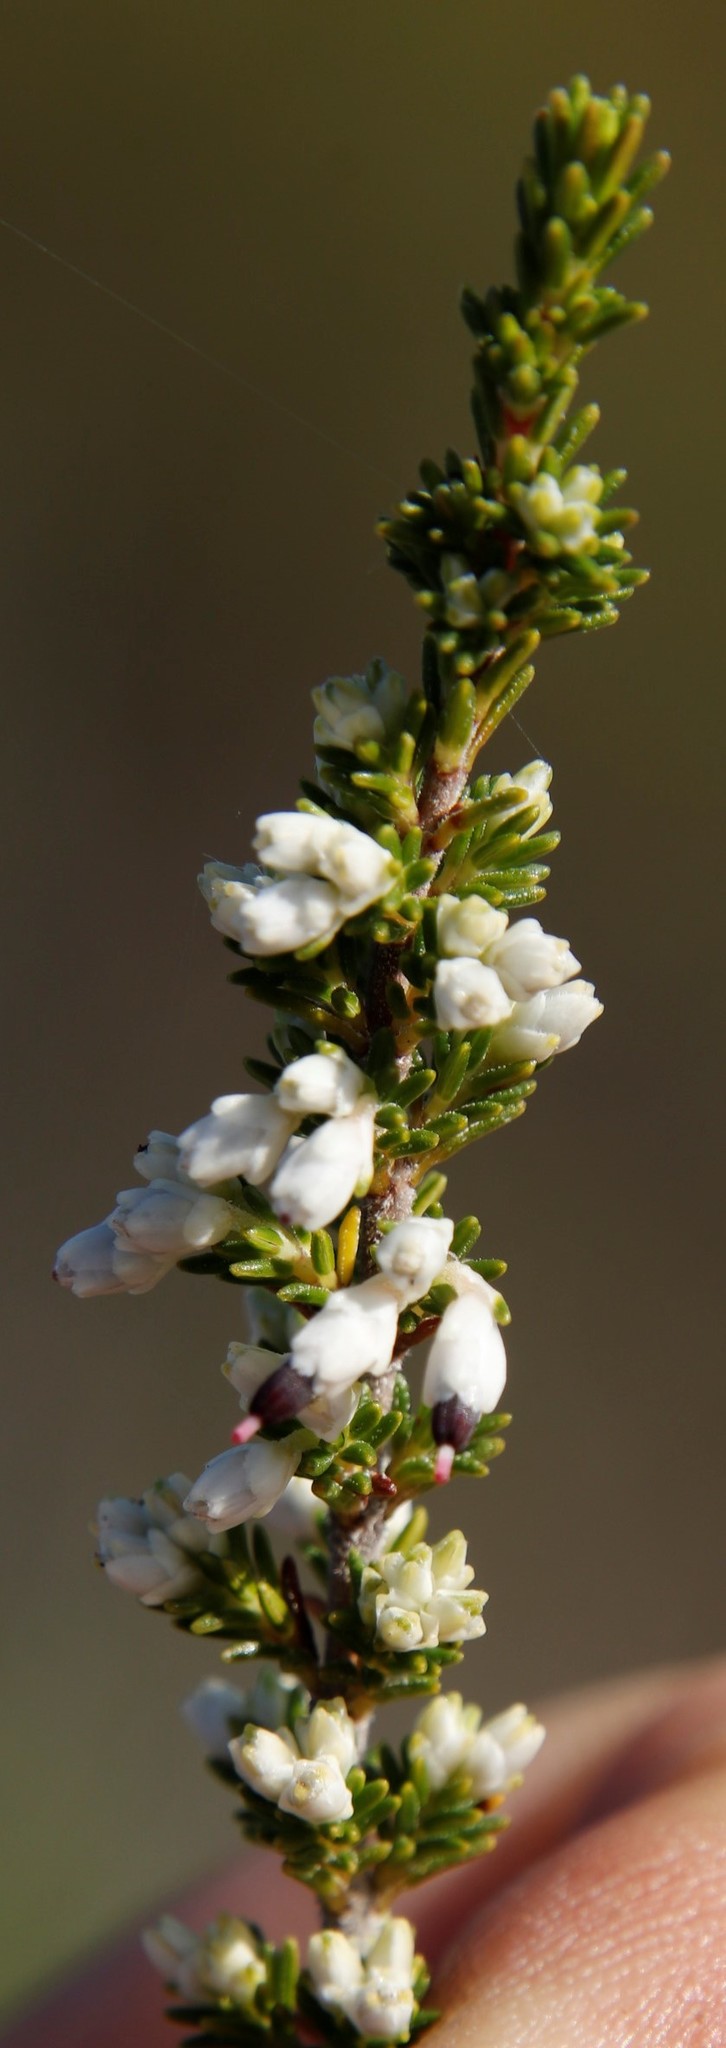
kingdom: Plantae
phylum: Tracheophyta
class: Magnoliopsida
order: Ericales
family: Ericaceae
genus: Erica
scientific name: Erica imbricata
